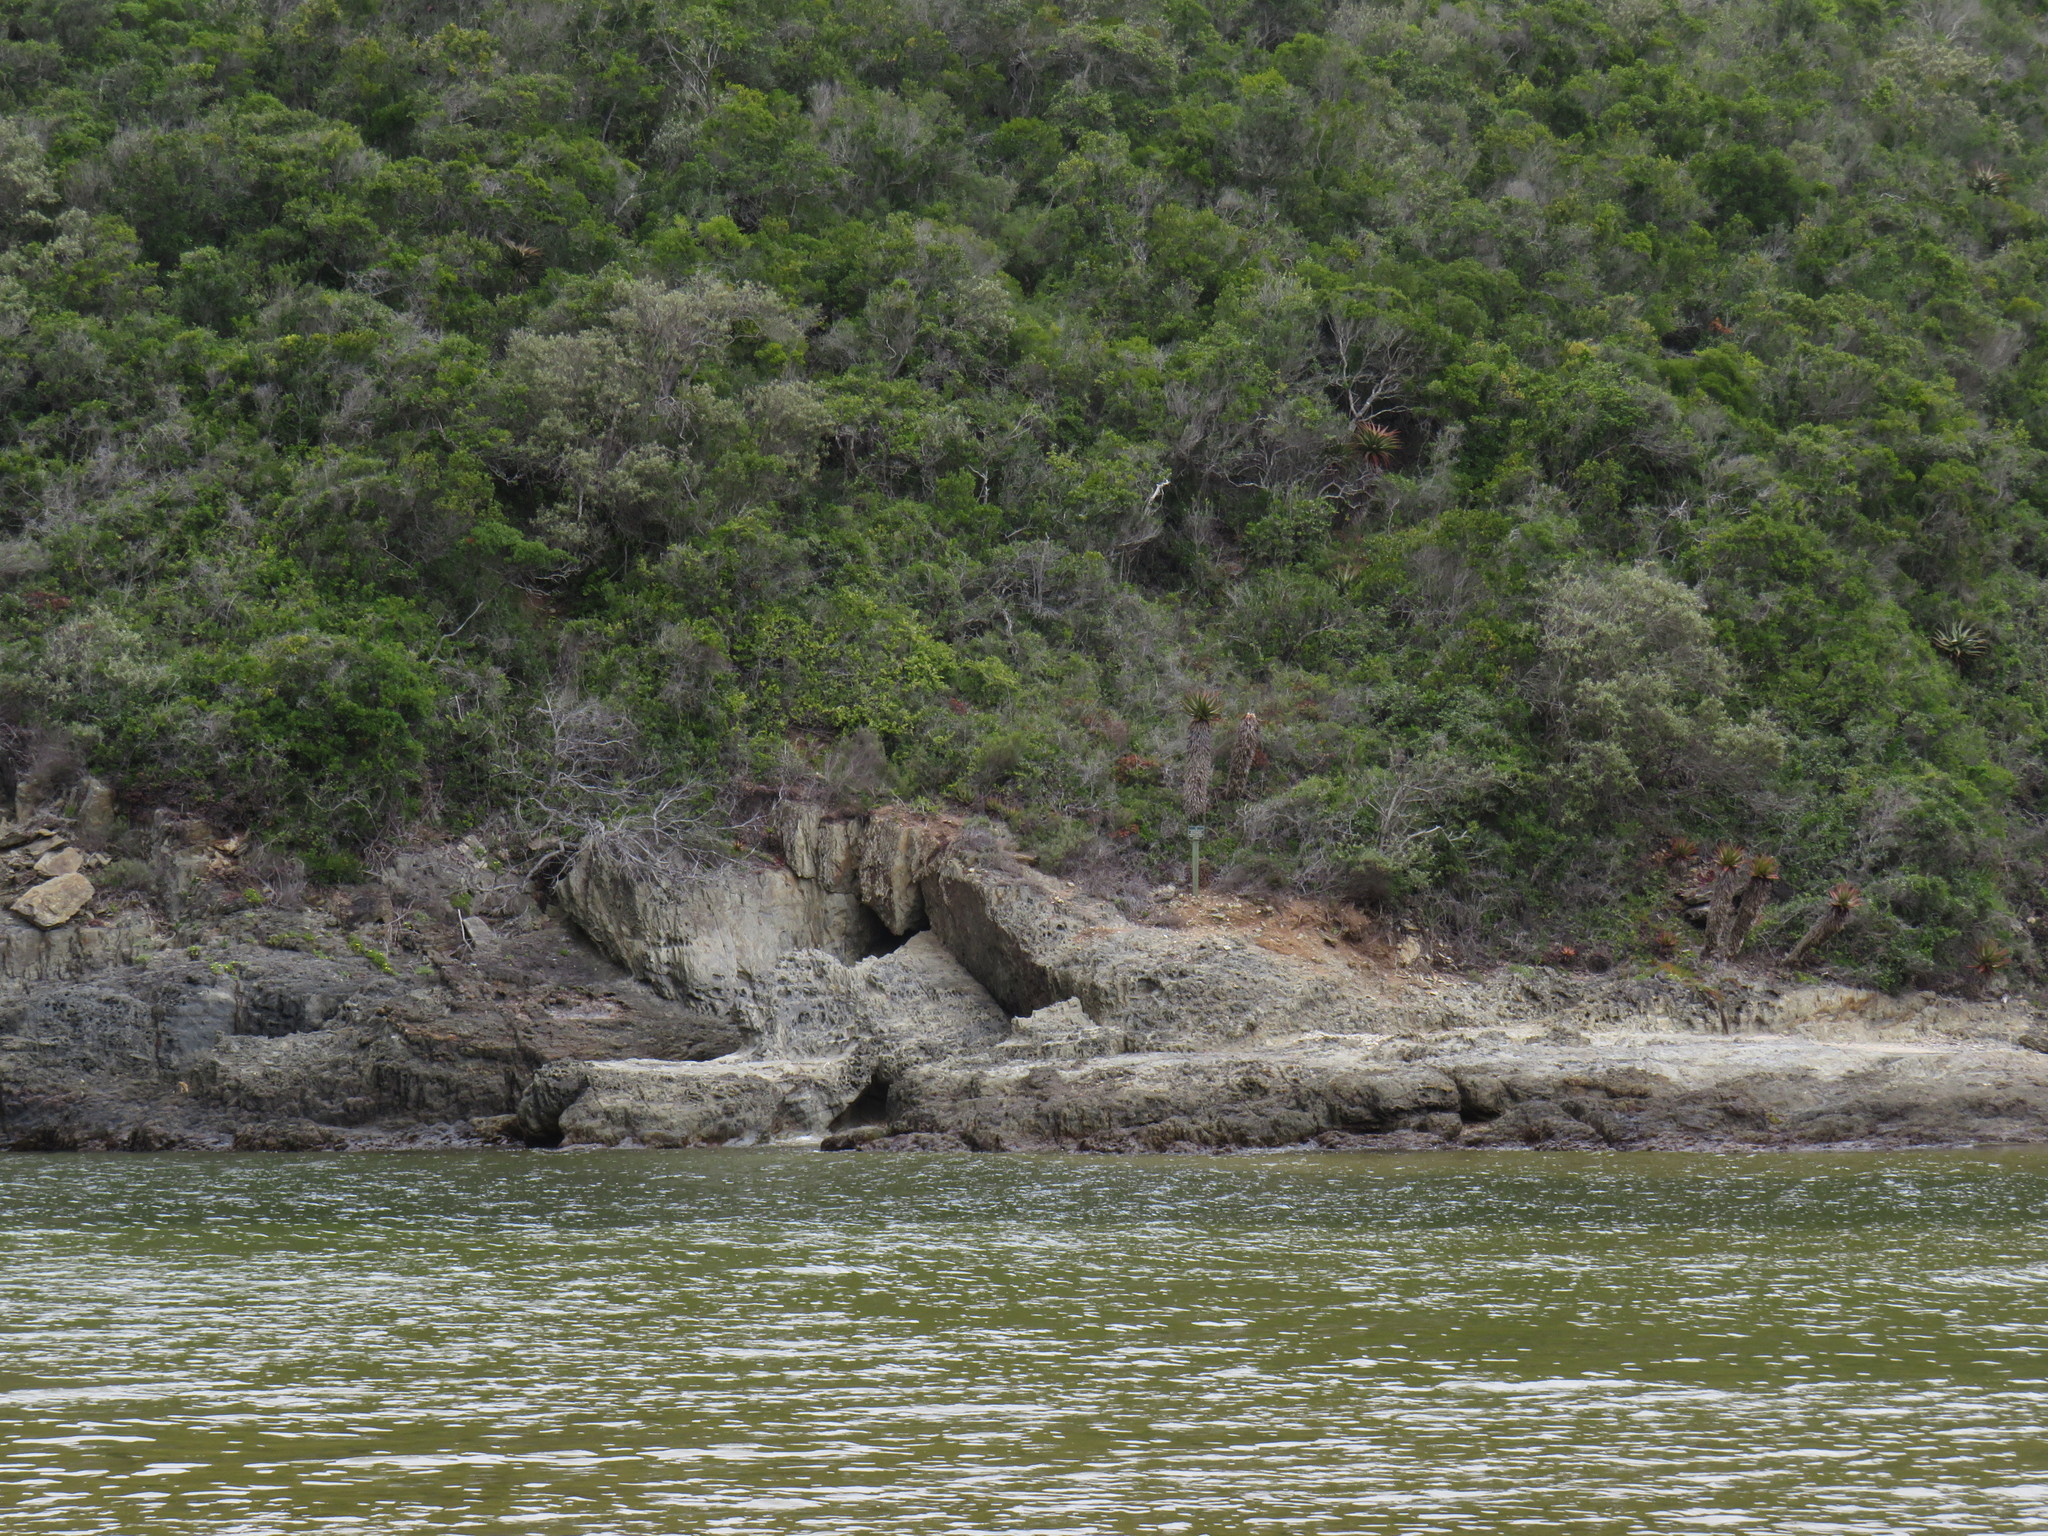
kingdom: Plantae
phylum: Tracheophyta
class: Liliopsida
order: Asparagales
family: Asphodelaceae
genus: Aloe
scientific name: Aloe ferox
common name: Bitter aloe
